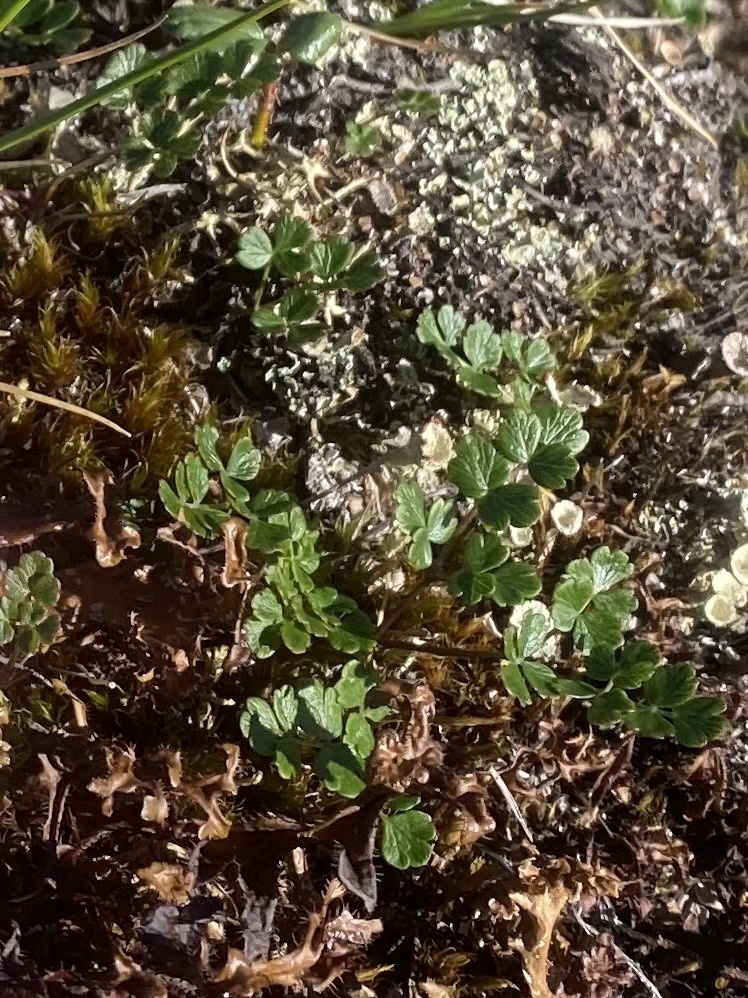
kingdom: Plantae
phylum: Tracheophyta
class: Magnoliopsida
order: Ranunculales
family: Ranunculaceae
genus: Thalictrum
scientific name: Thalictrum alpinum
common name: Alpine meadow-rue
